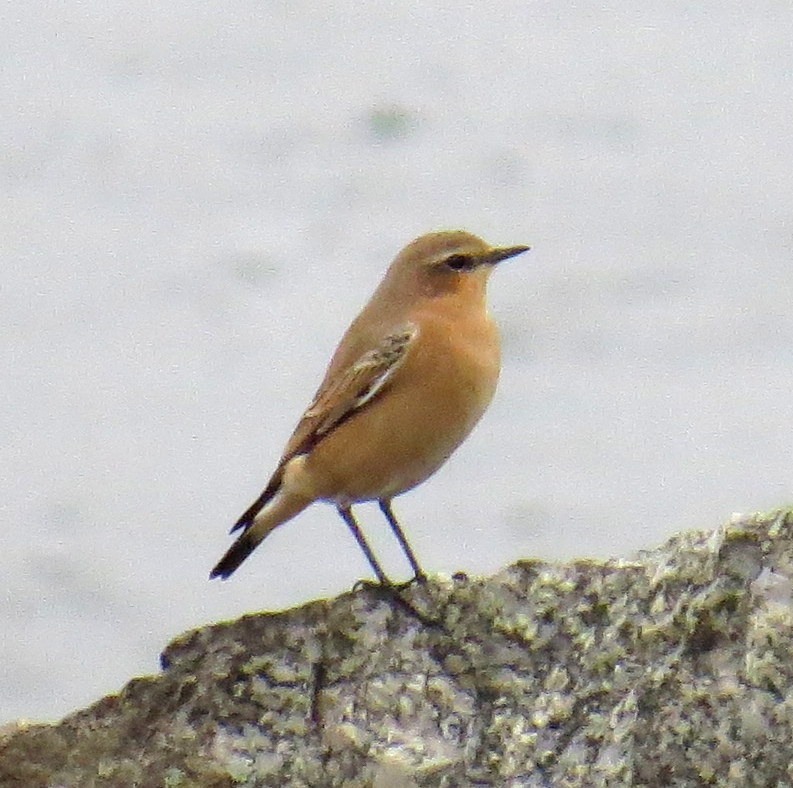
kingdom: Animalia
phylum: Chordata
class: Aves
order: Passeriformes
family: Muscicapidae
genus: Oenanthe
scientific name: Oenanthe oenanthe
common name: Northern wheatear
